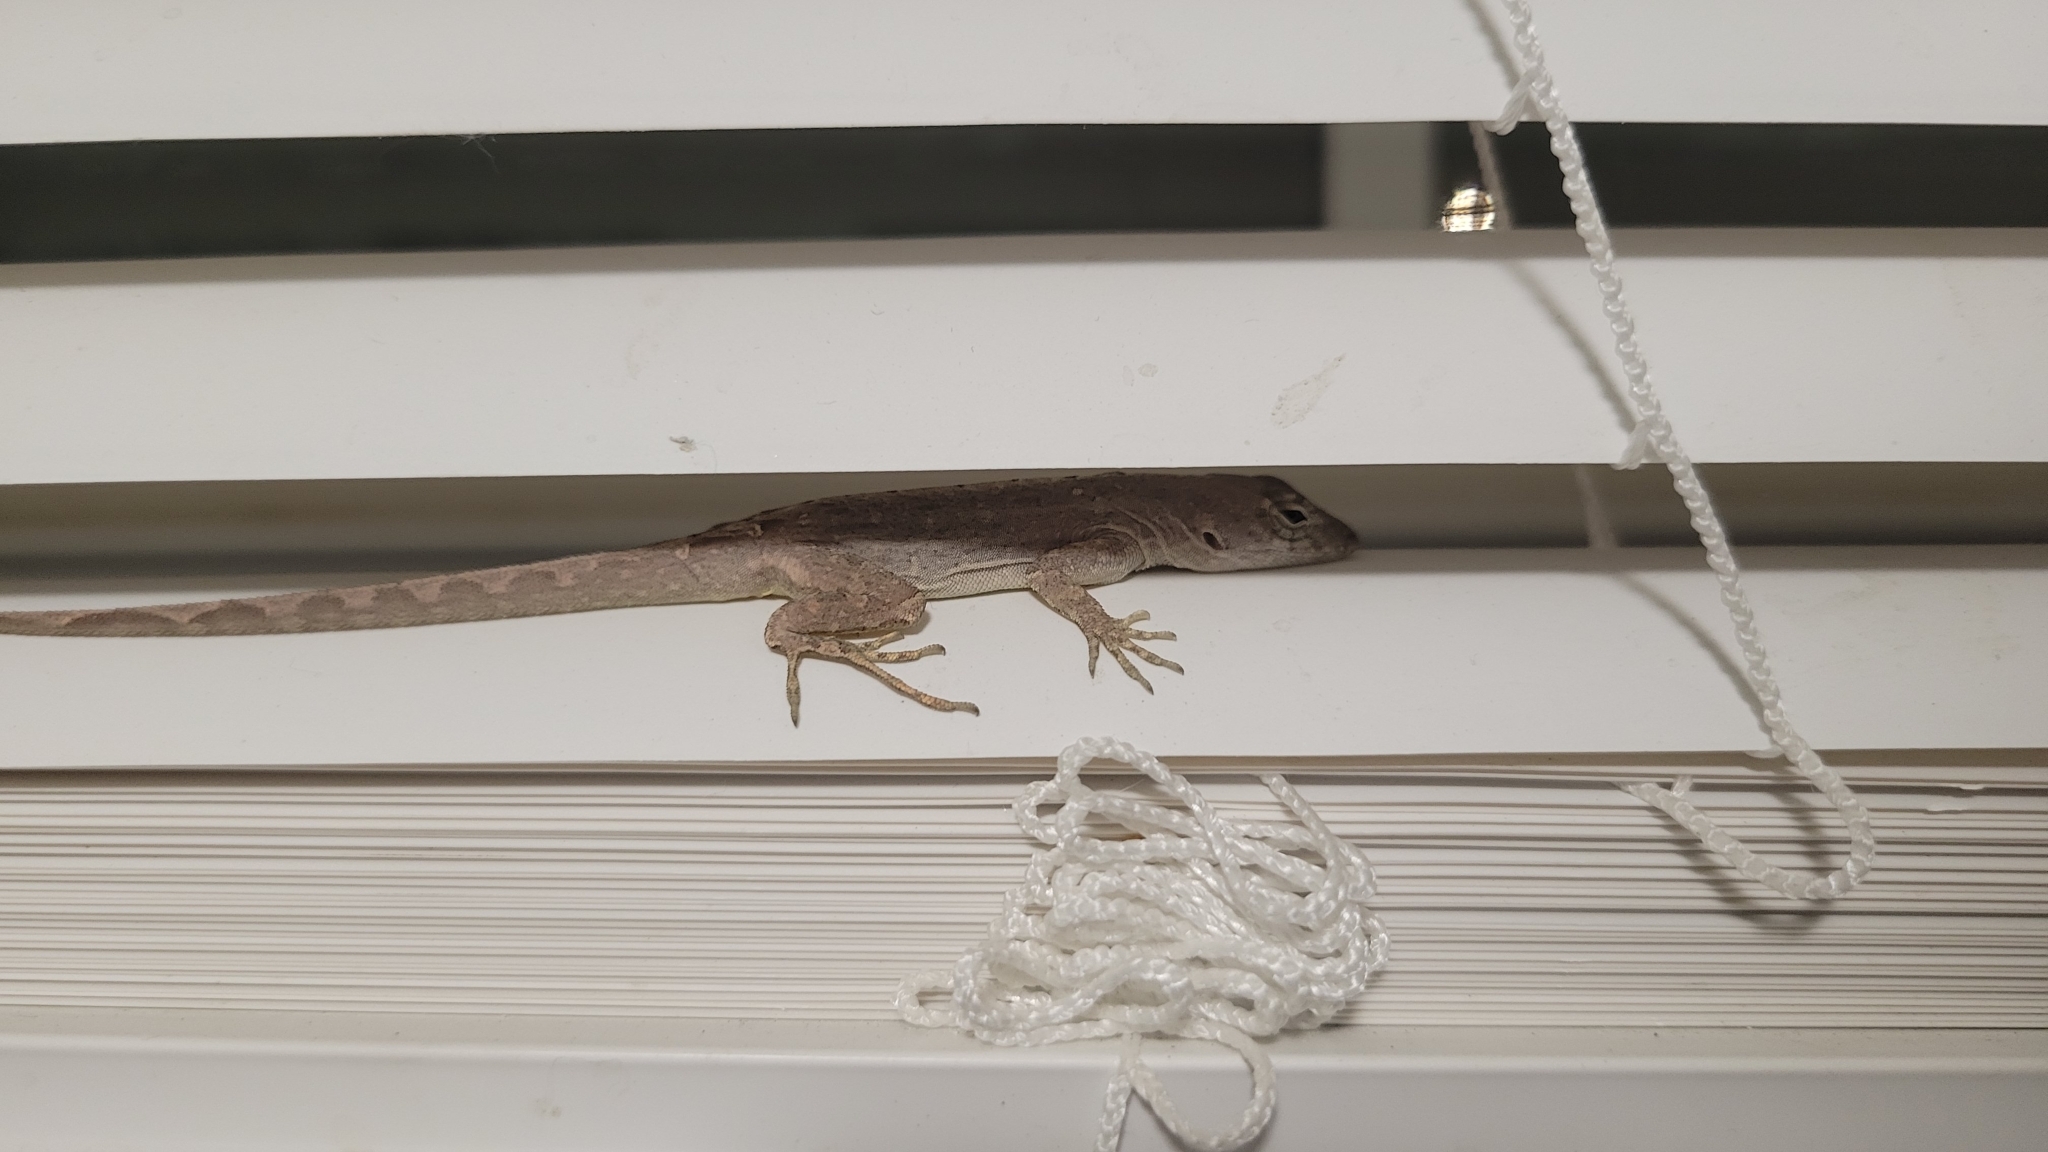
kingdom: Animalia
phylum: Chordata
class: Squamata
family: Dactyloidae
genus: Anolis
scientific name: Anolis sagrei
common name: Brown anole
